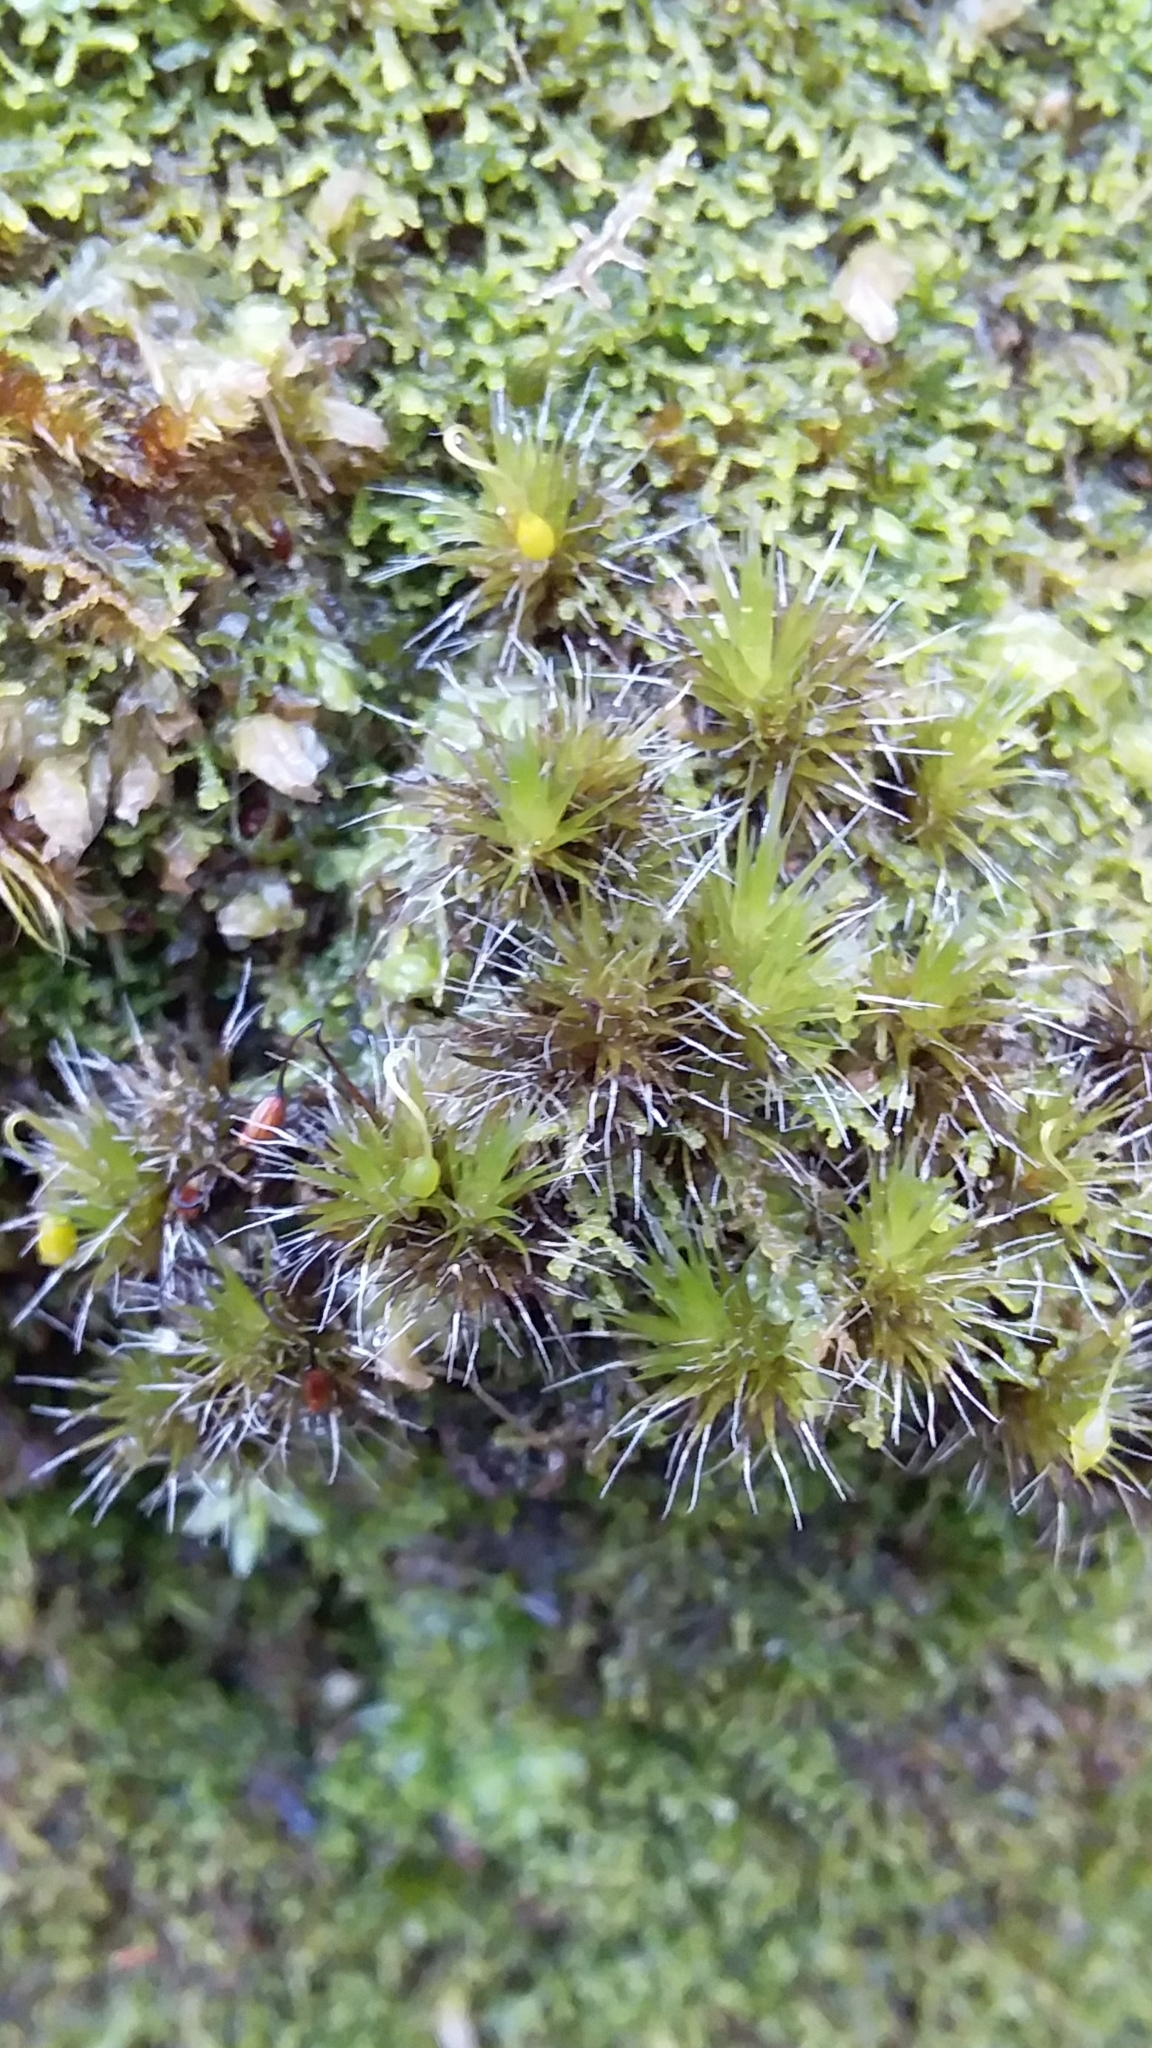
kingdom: Plantae
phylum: Bryophyta
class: Bryopsida
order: Dicranales
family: Leucobryaceae
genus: Campylopus
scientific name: Campylopus introflexus
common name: Heath star moss
